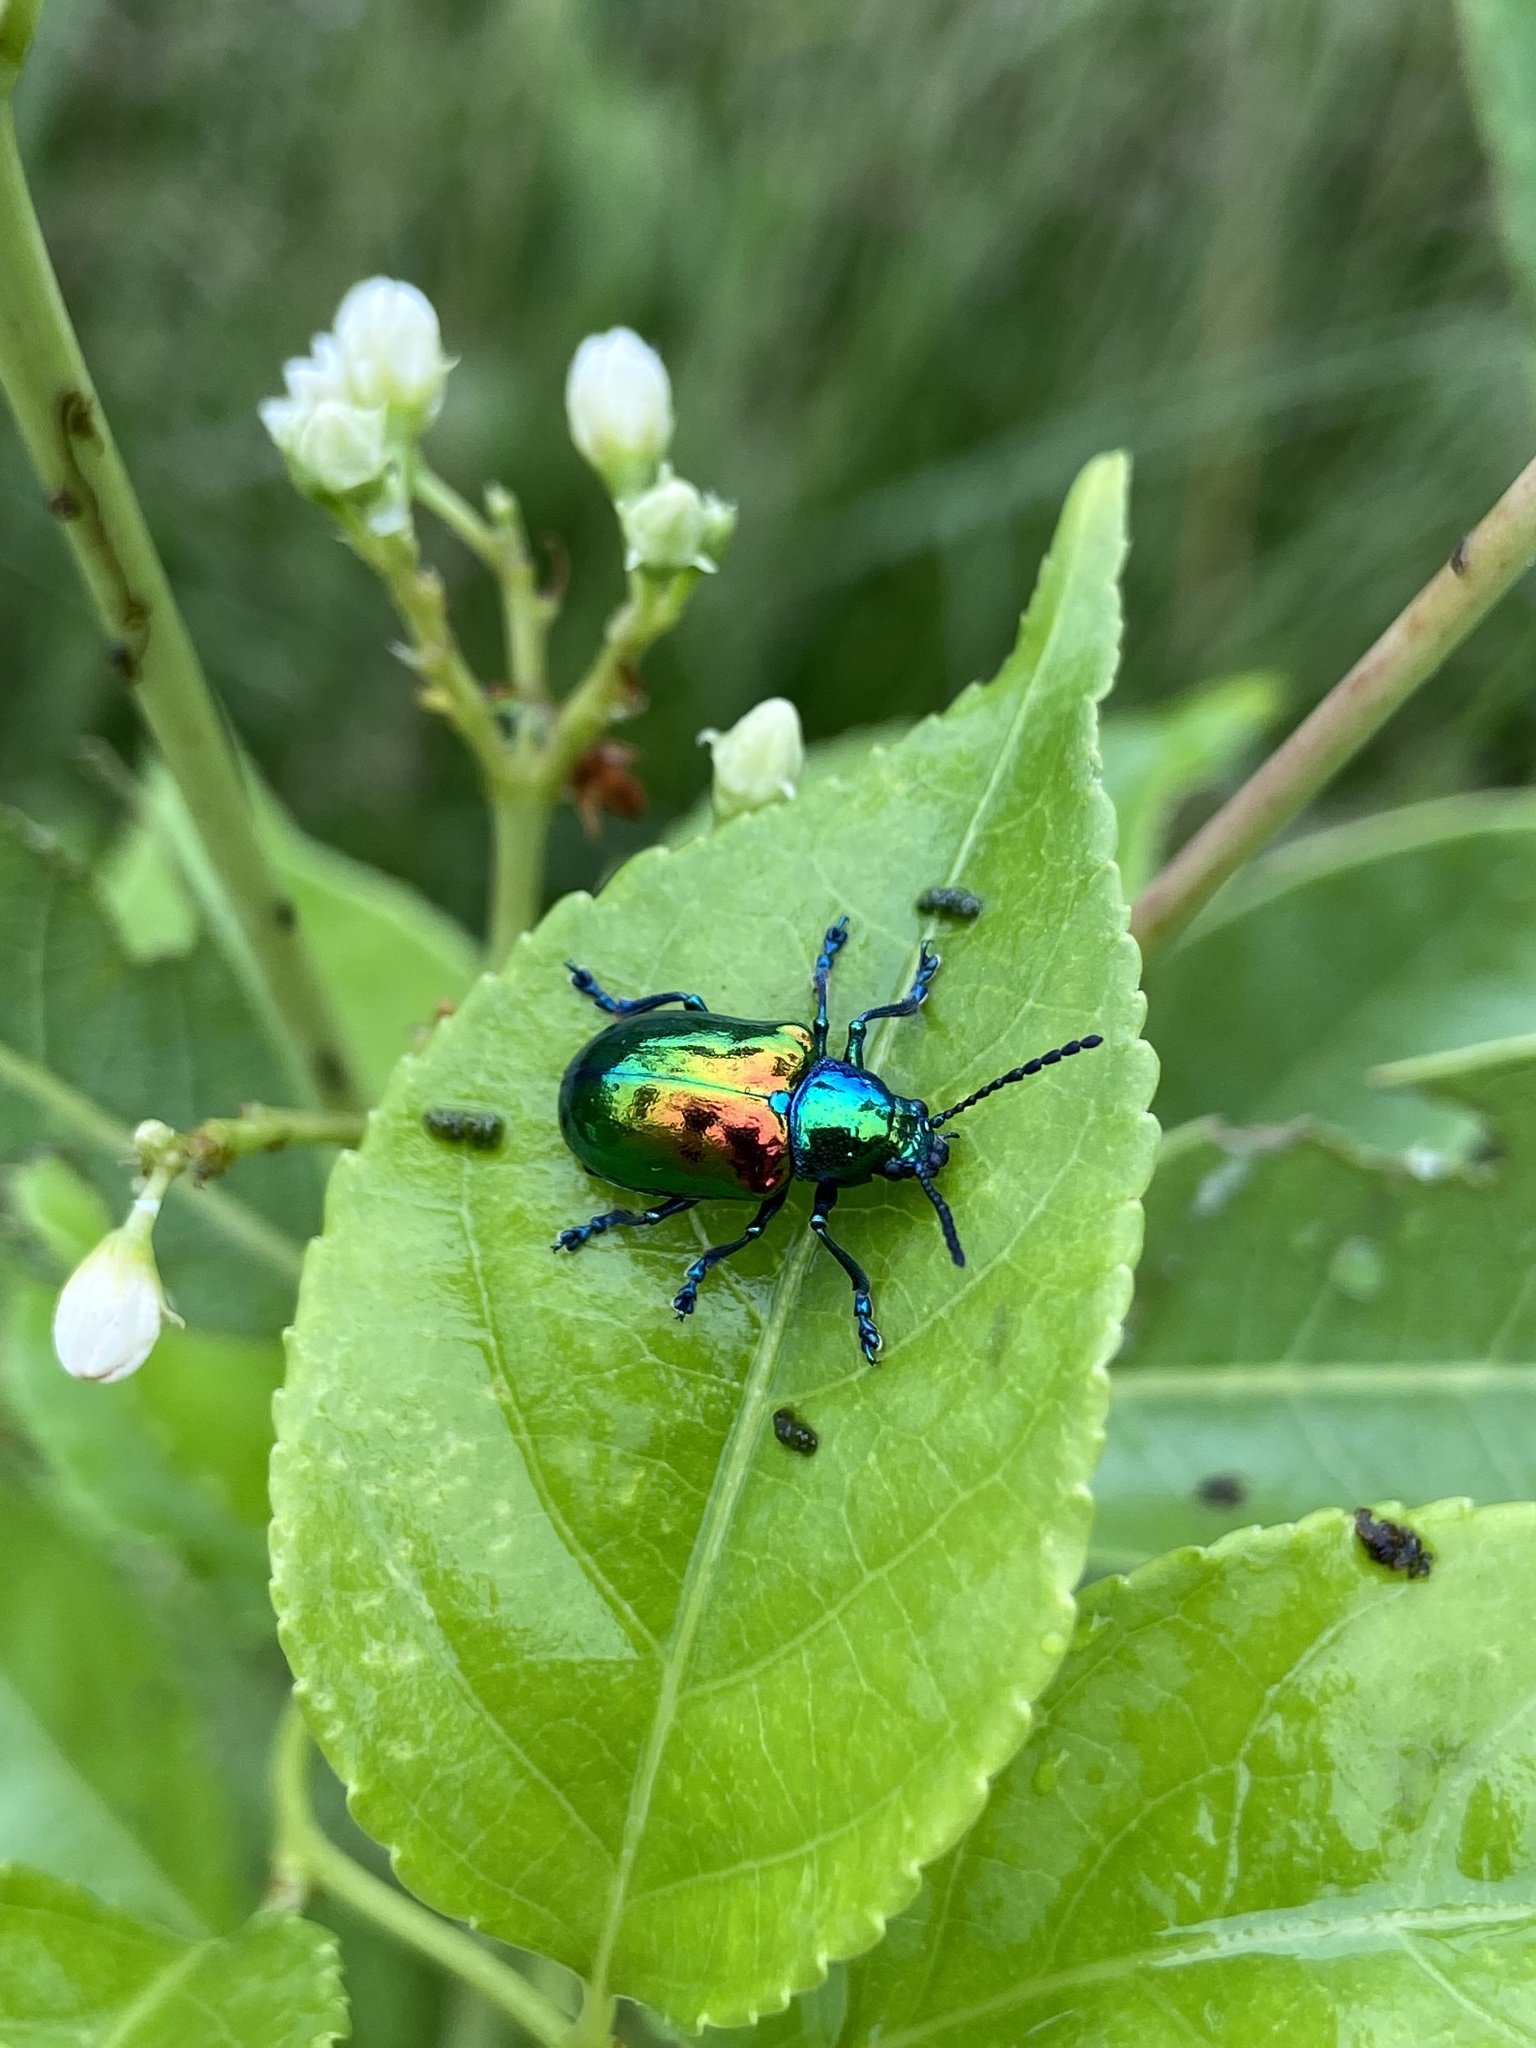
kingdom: Animalia
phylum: Arthropoda
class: Insecta
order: Coleoptera
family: Chrysomelidae
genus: Chrysochus
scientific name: Chrysochus auratus
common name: Dogbane leaf beetle
